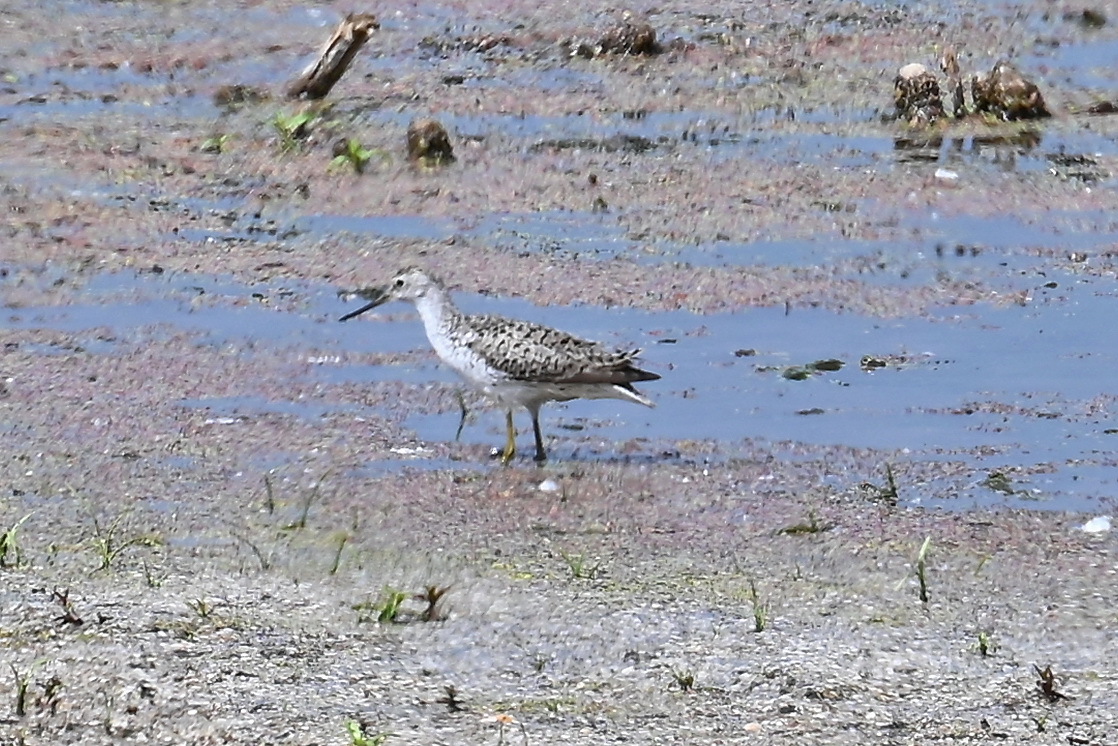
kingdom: Animalia
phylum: Chordata
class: Aves
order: Charadriiformes
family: Scolopacidae
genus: Tringa
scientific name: Tringa stagnatilis
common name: Marsh sandpiper
